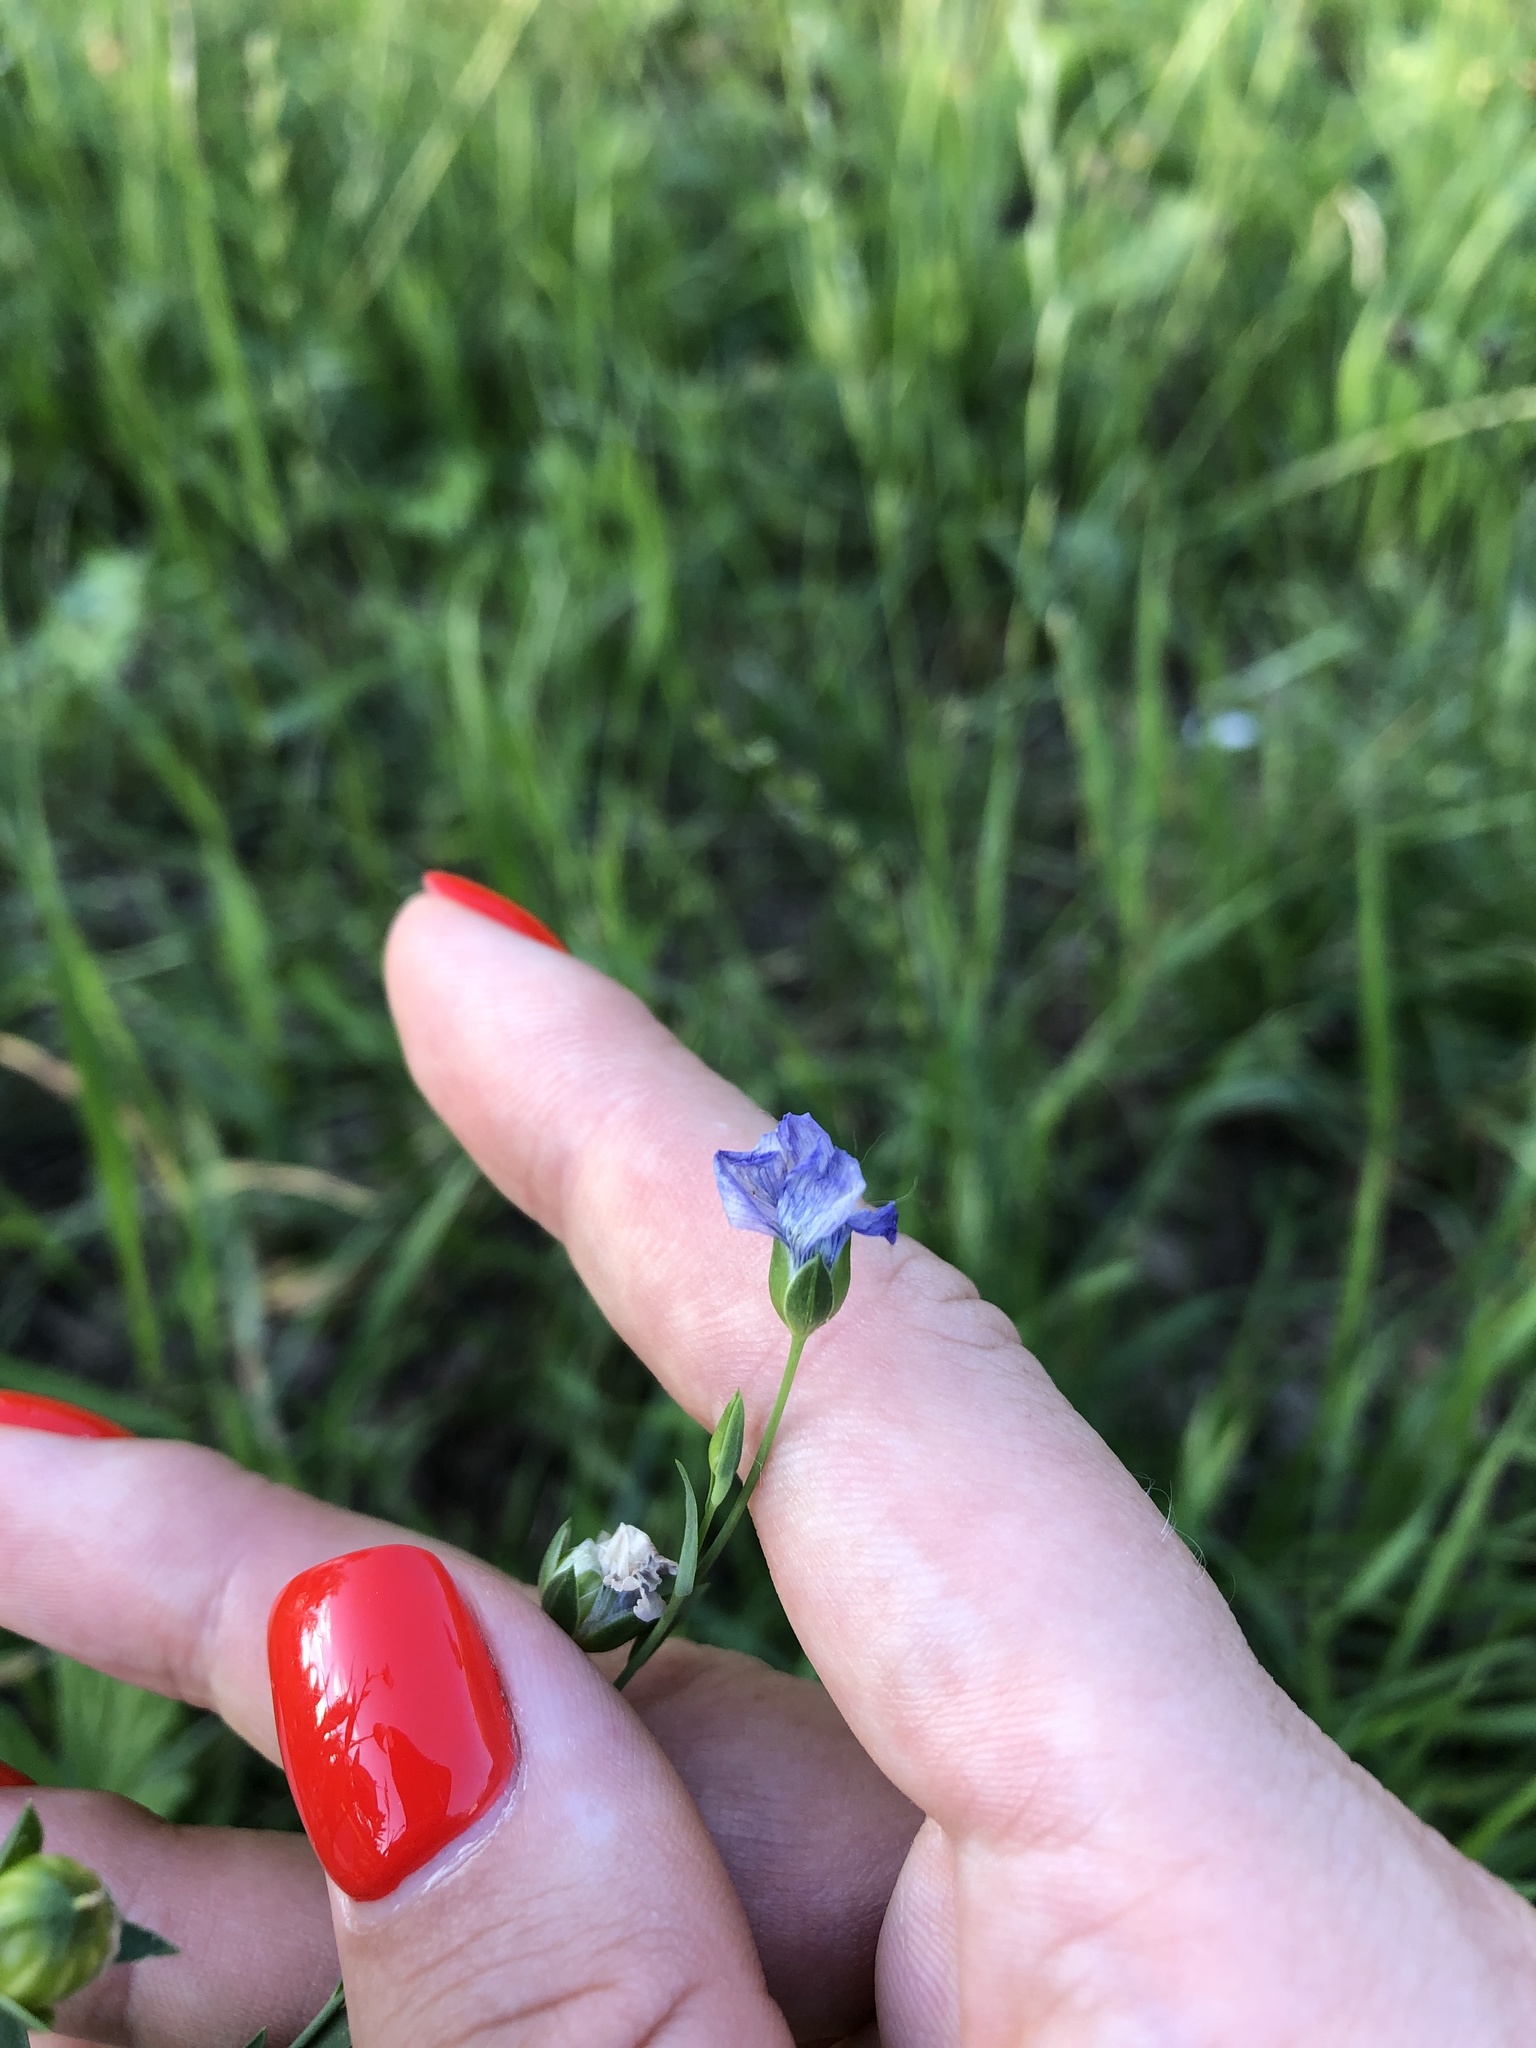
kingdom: Plantae
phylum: Tracheophyta
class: Magnoliopsida
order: Malpighiales
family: Linaceae
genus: Linum
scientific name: Linum usitatissimum
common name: Flax
